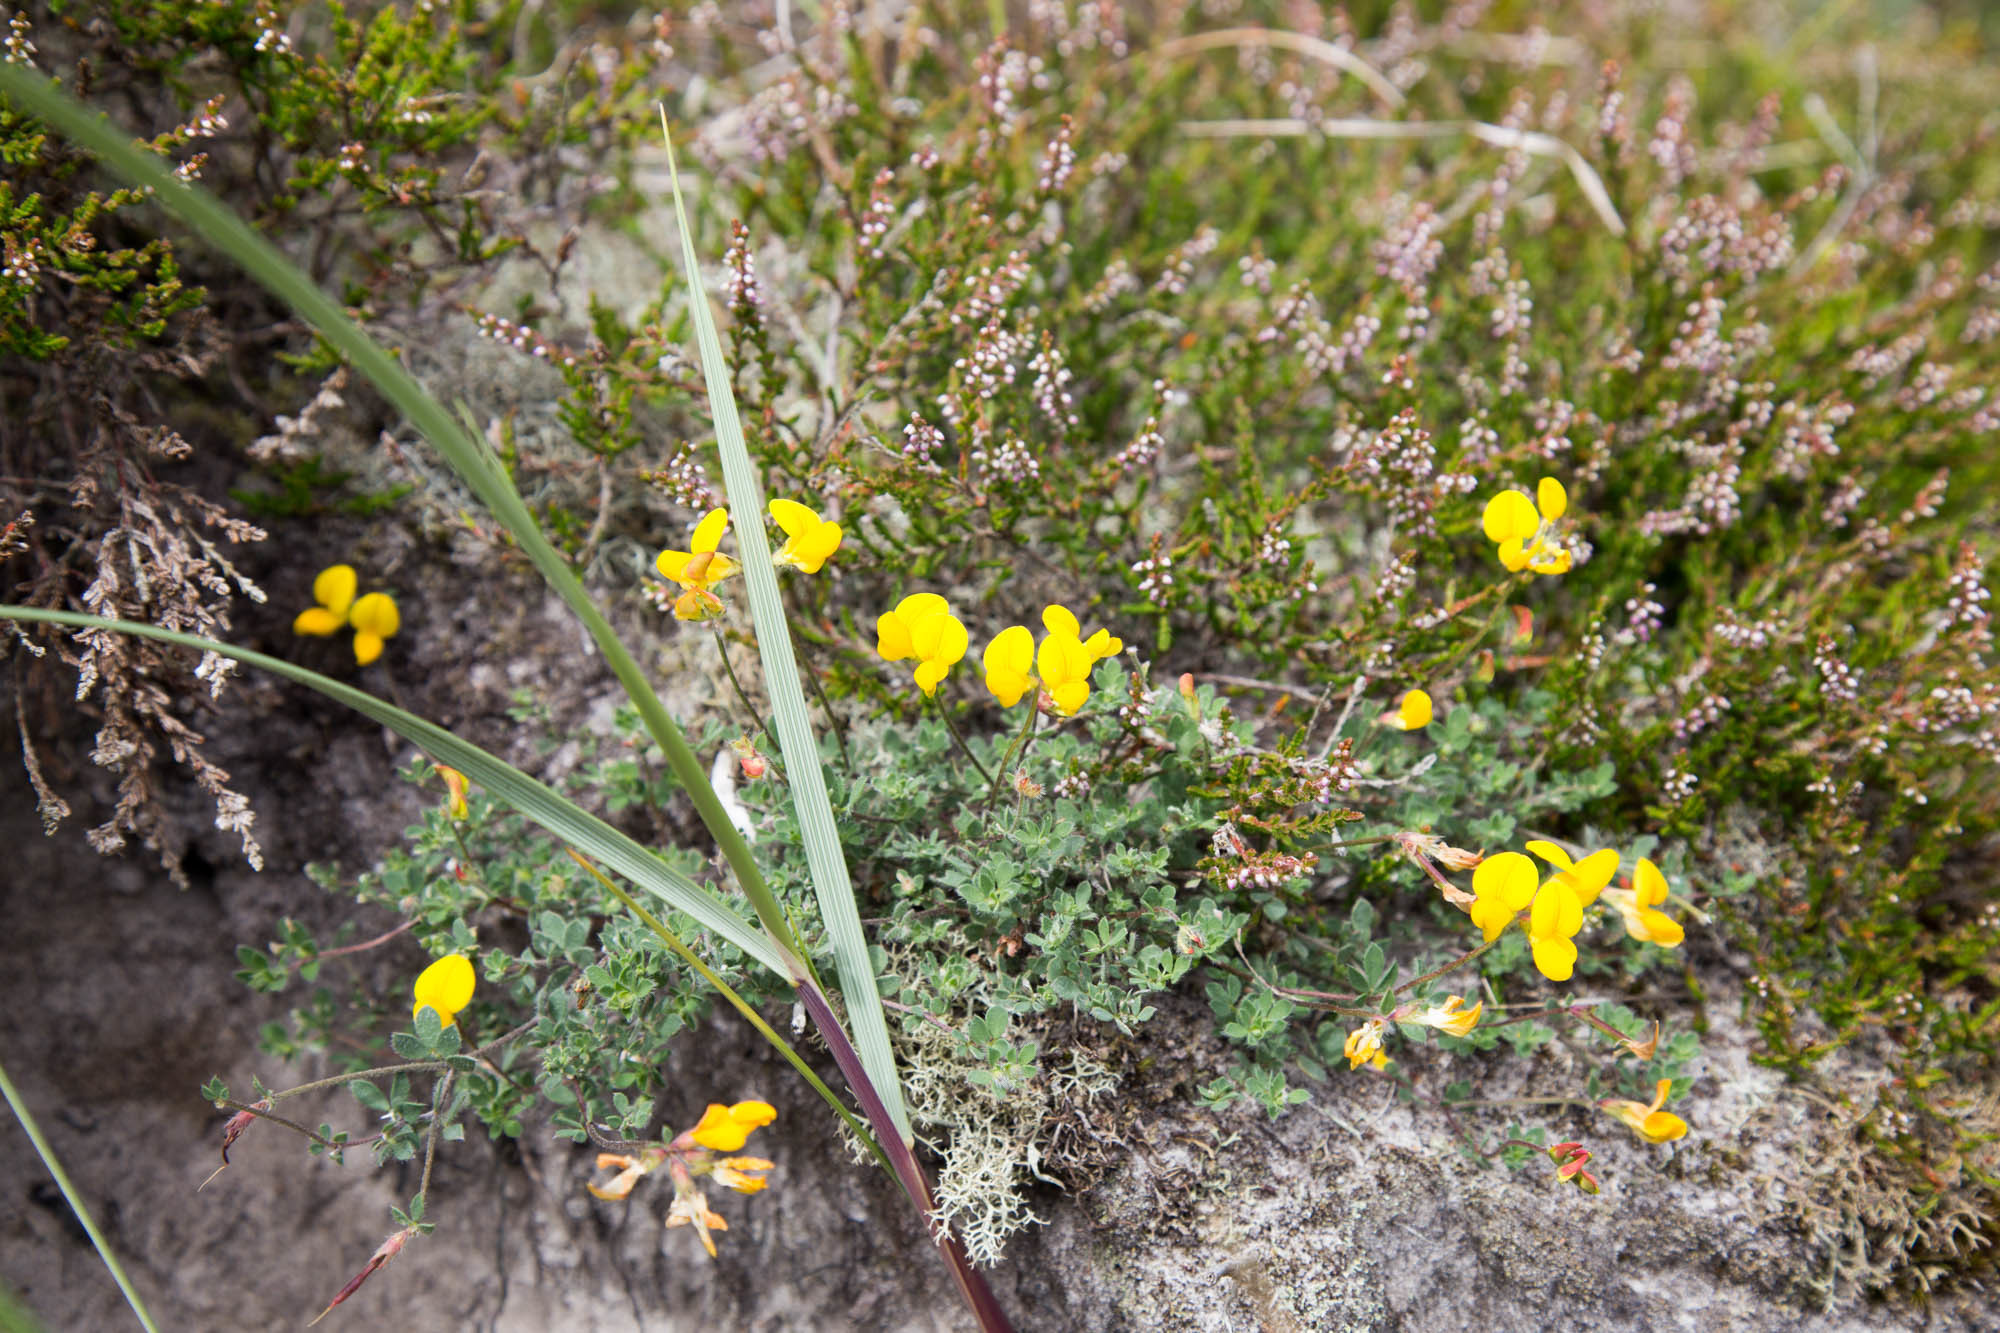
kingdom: Plantae
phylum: Tracheophyta
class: Magnoliopsida
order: Fabales
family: Fabaceae
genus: Lotus
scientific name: Lotus corniculatus
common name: Common bird's-foot-trefoil
